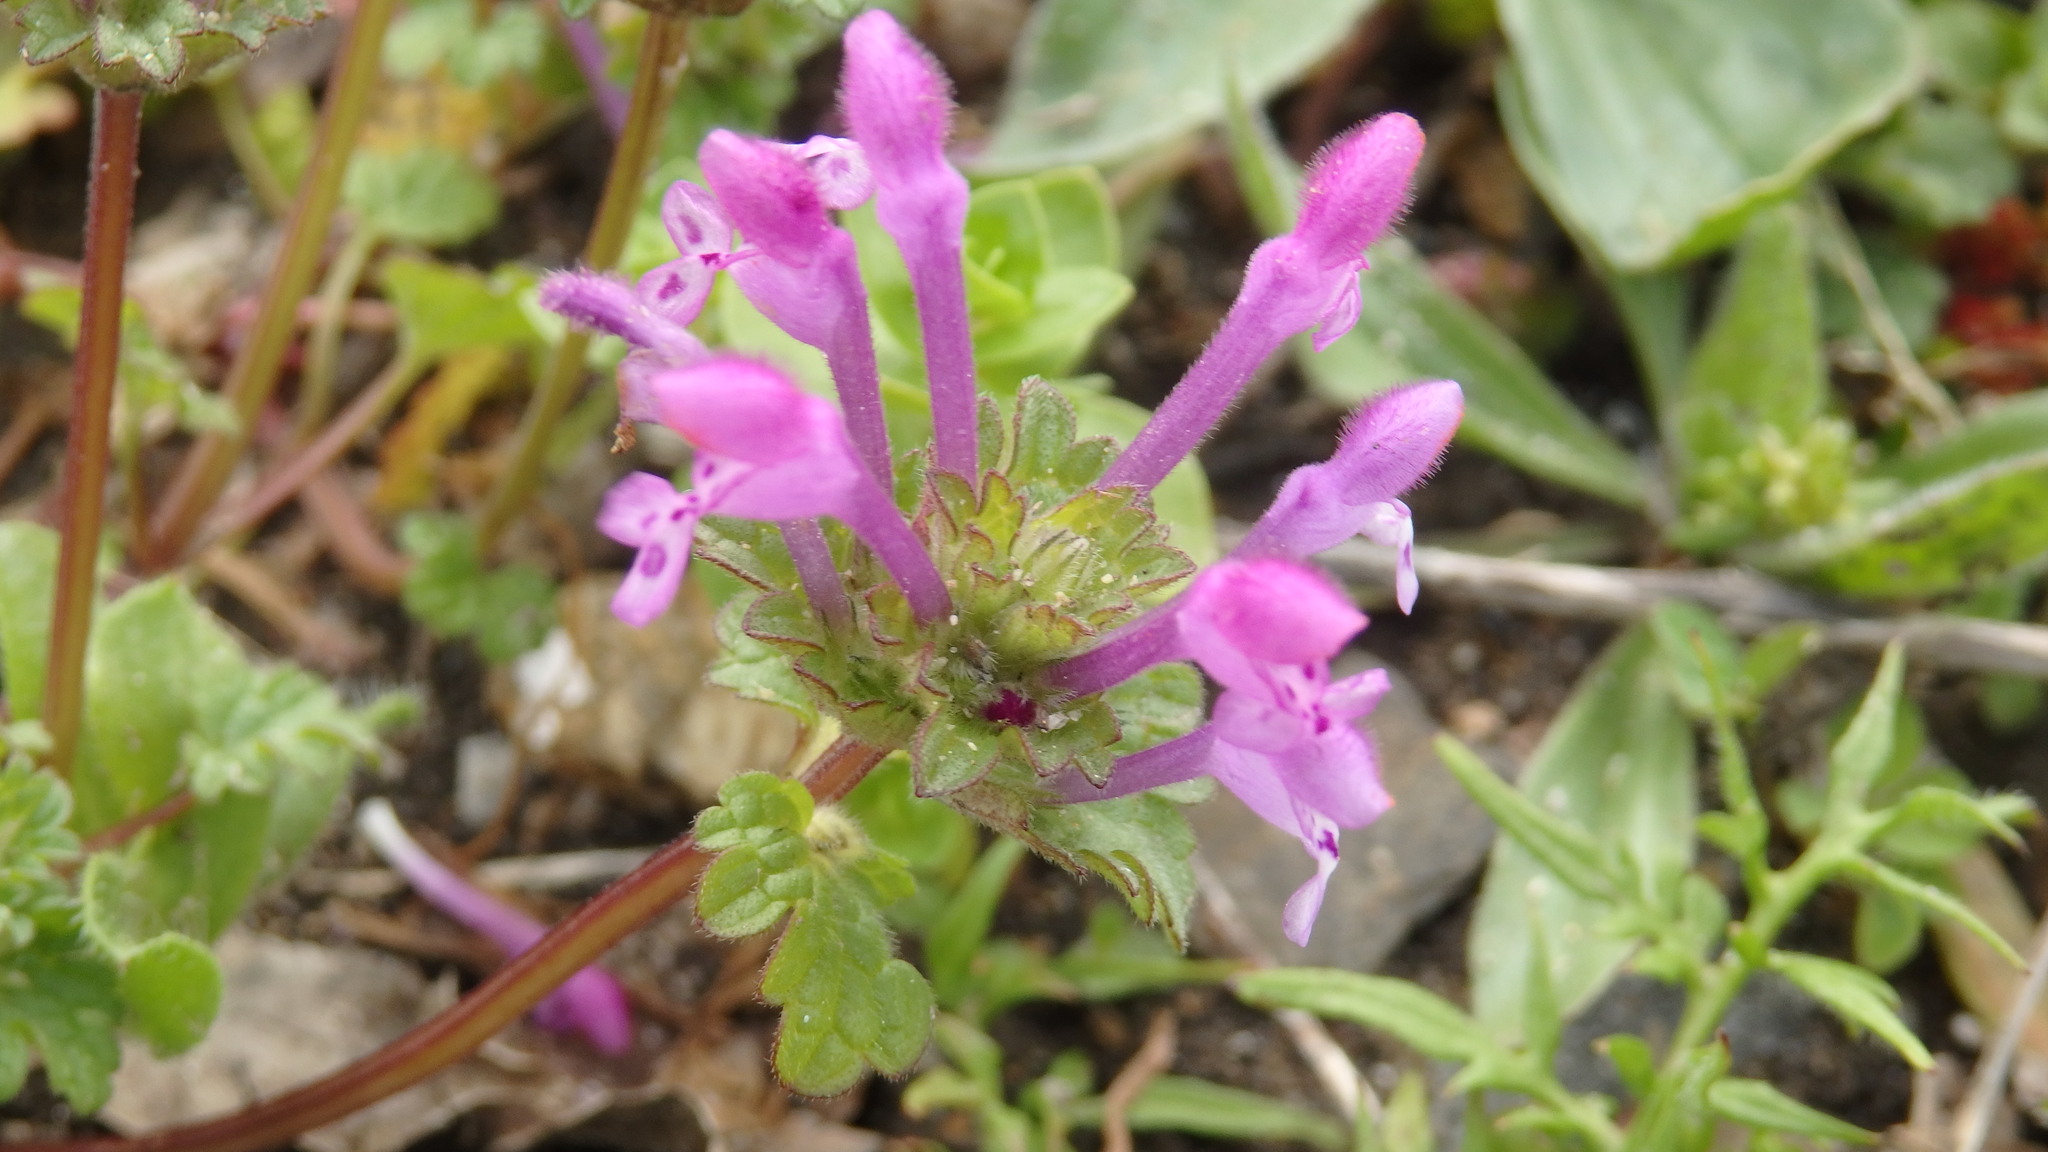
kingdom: Plantae
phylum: Tracheophyta
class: Magnoliopsida
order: Lamiales
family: Lamiaceae
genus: Lamium
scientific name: Lamium amplexicaule
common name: Henbit dead-nettle
